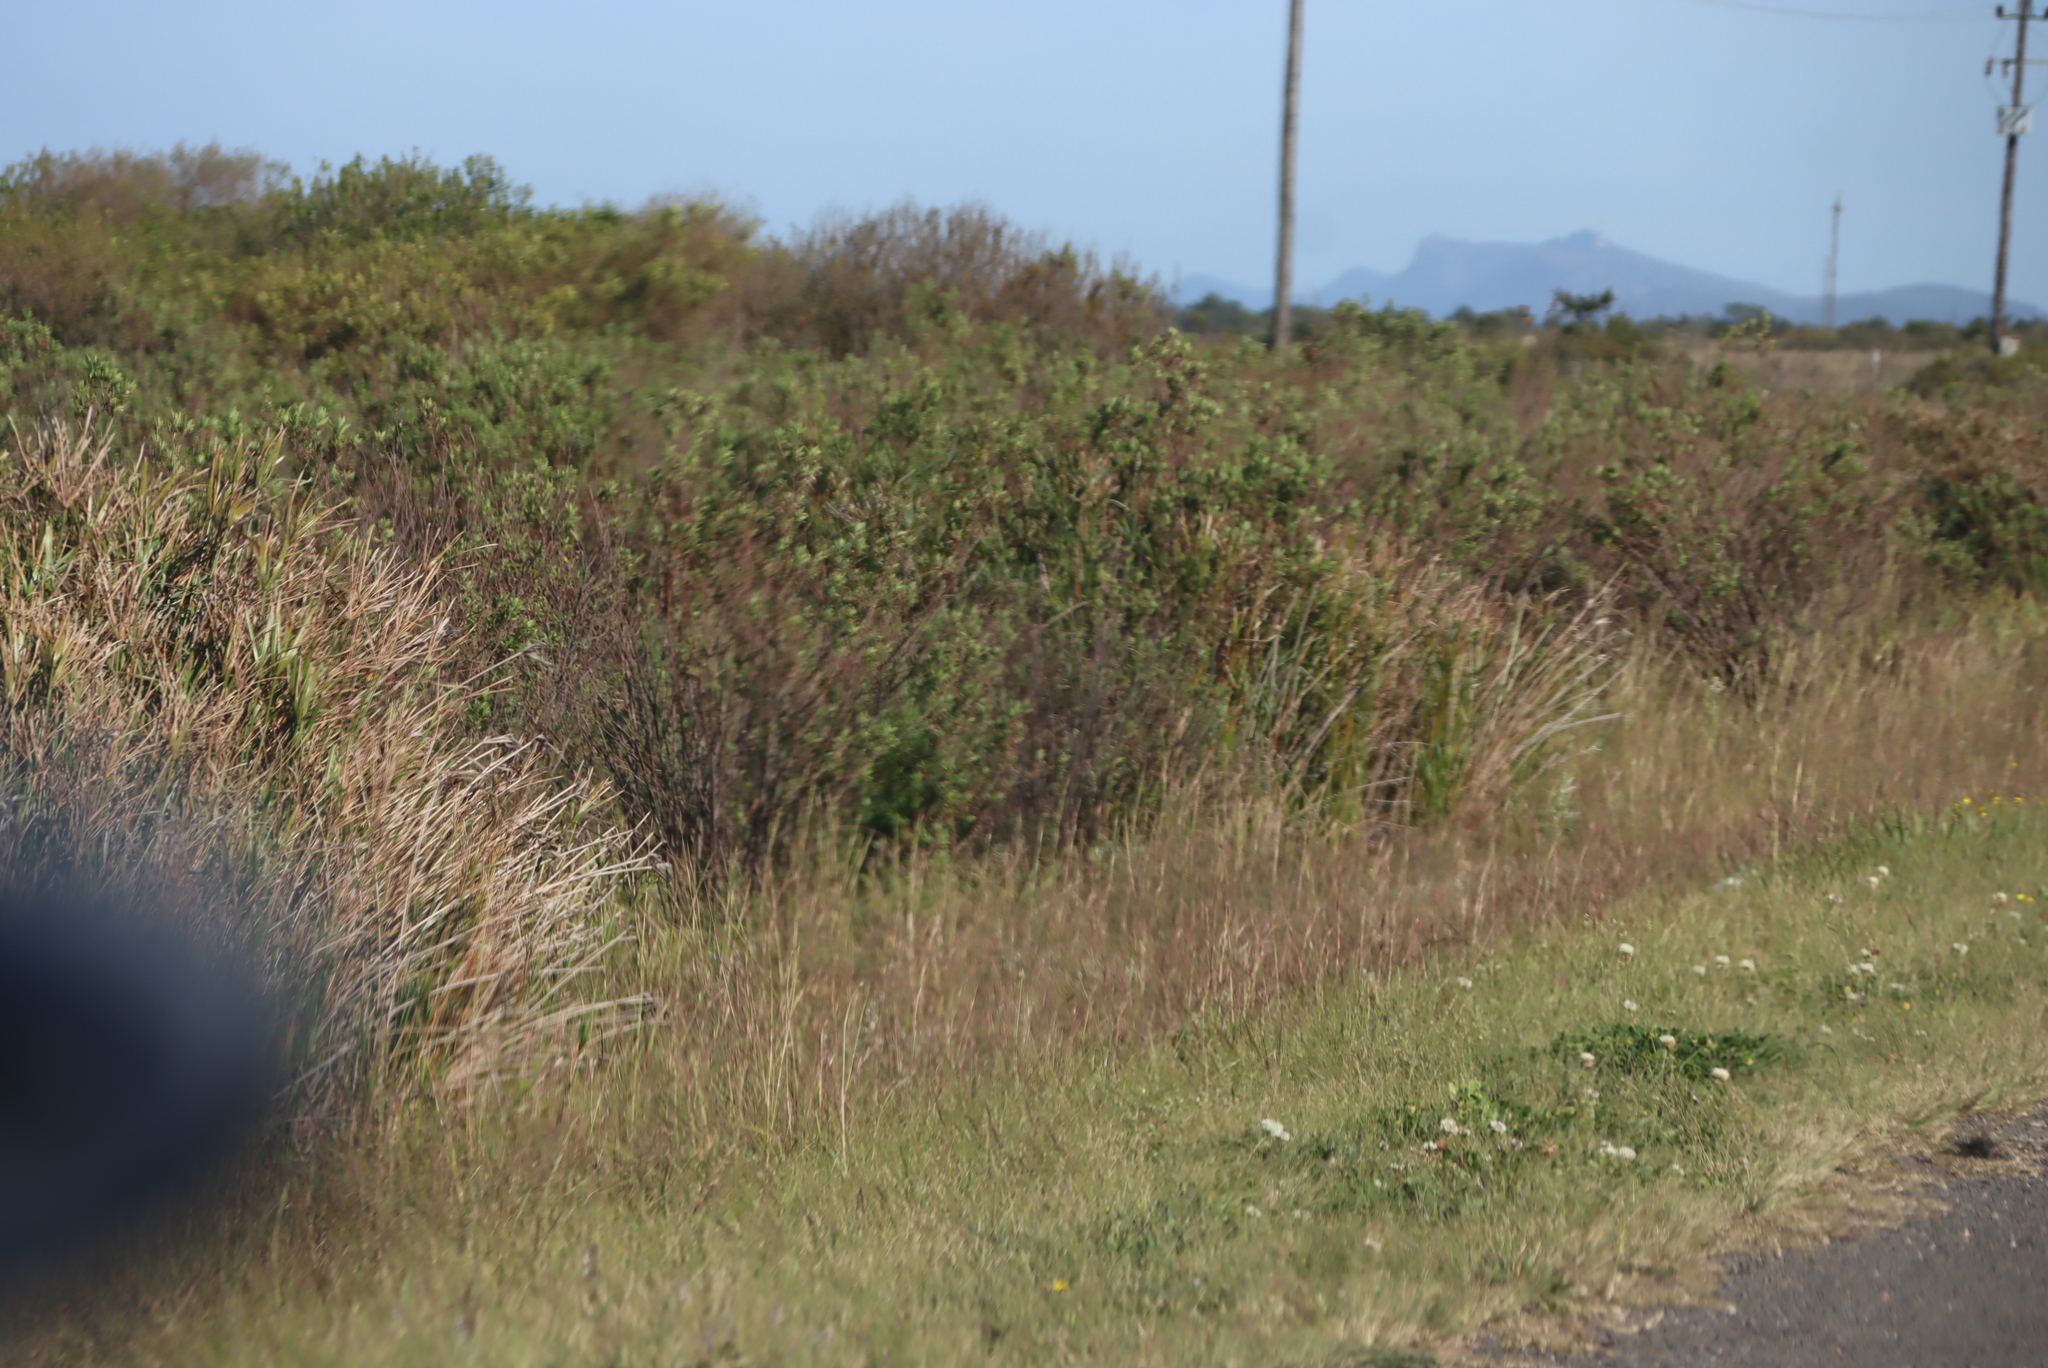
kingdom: Plantae
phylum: Tracheophyta
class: Magnoliopsida
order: Asterales
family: Asteraceae
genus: Nidorella
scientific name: Nidorella ivifolia
